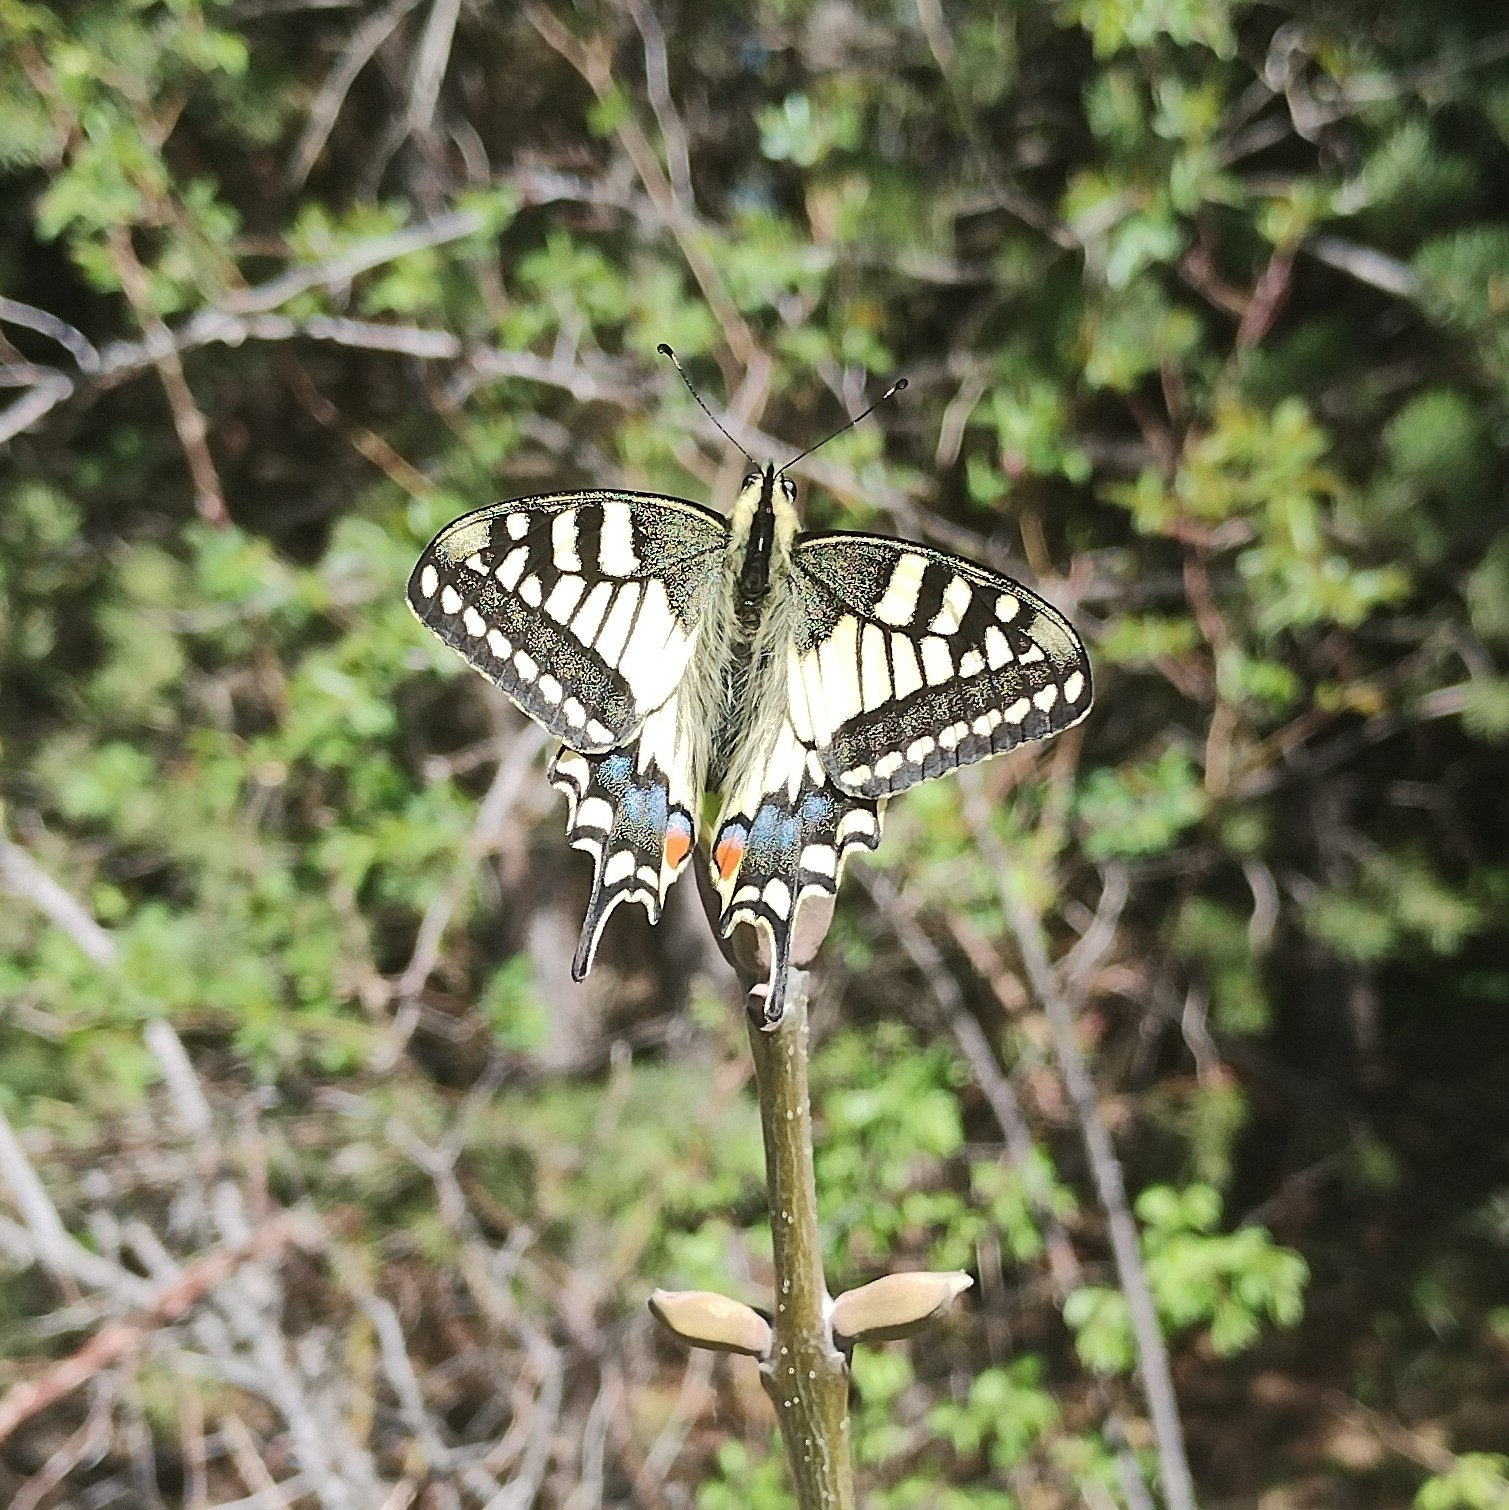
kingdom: Animalia
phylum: Arthropoda
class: Insecta
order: Lepidoptera
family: Papilionidae
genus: Papilio
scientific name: Papilio machaon
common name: Swallowtail
